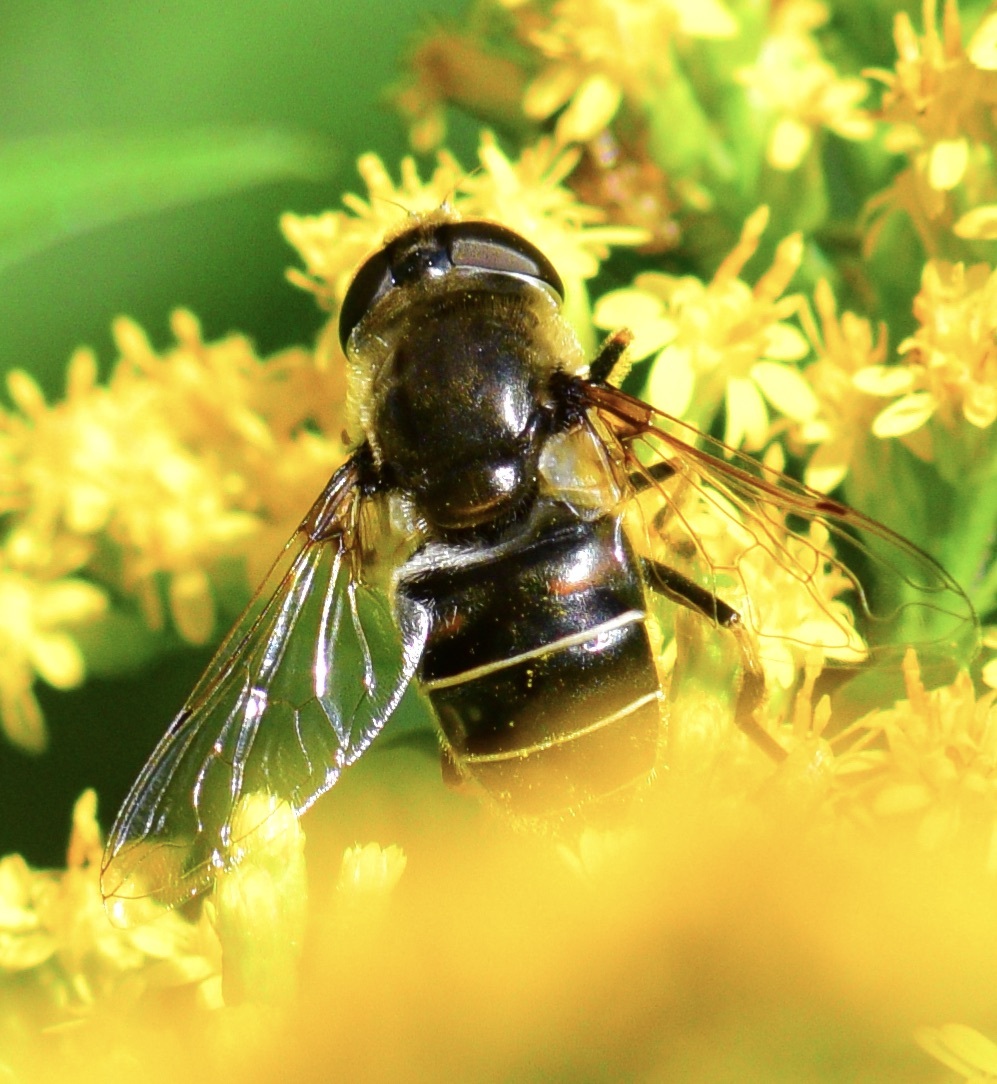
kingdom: Animalia
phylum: Arthropoda
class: Insecta
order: Diptera
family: Syrphidae
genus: Eristalis
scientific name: Eristalis dimidiata
